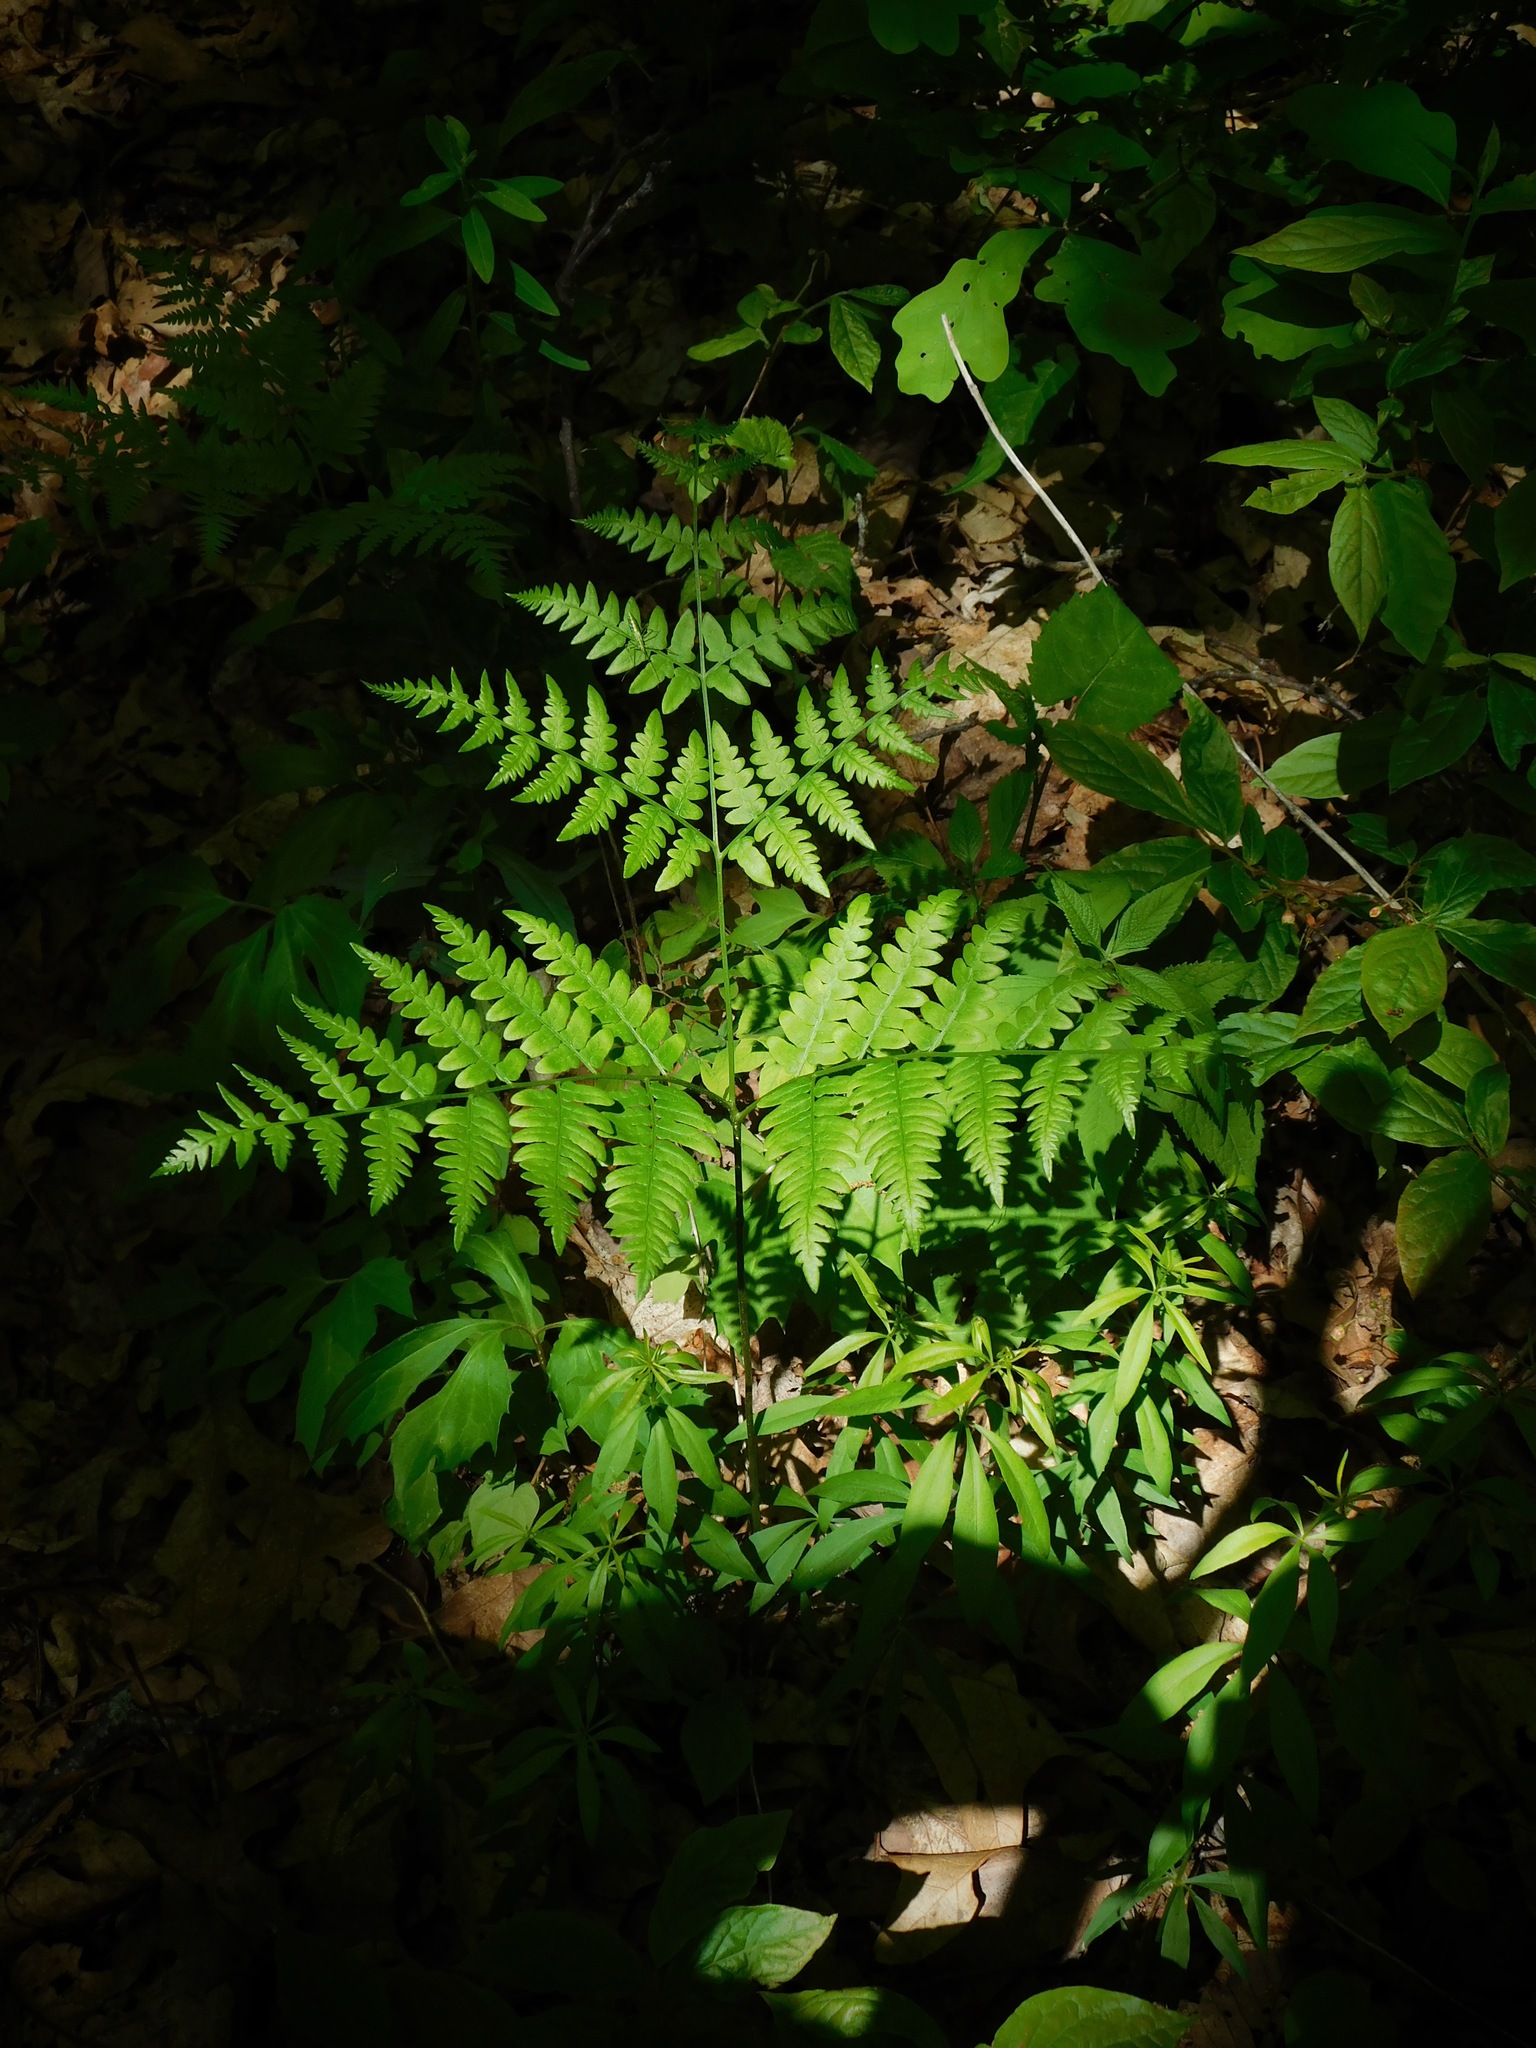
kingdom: Plantae
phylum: Tracheophyta
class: Polypodiopsida
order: Polypodiales
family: Dennstaedtiaceae
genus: Pteridium
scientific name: Pteridium aquilinum
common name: Bracken
